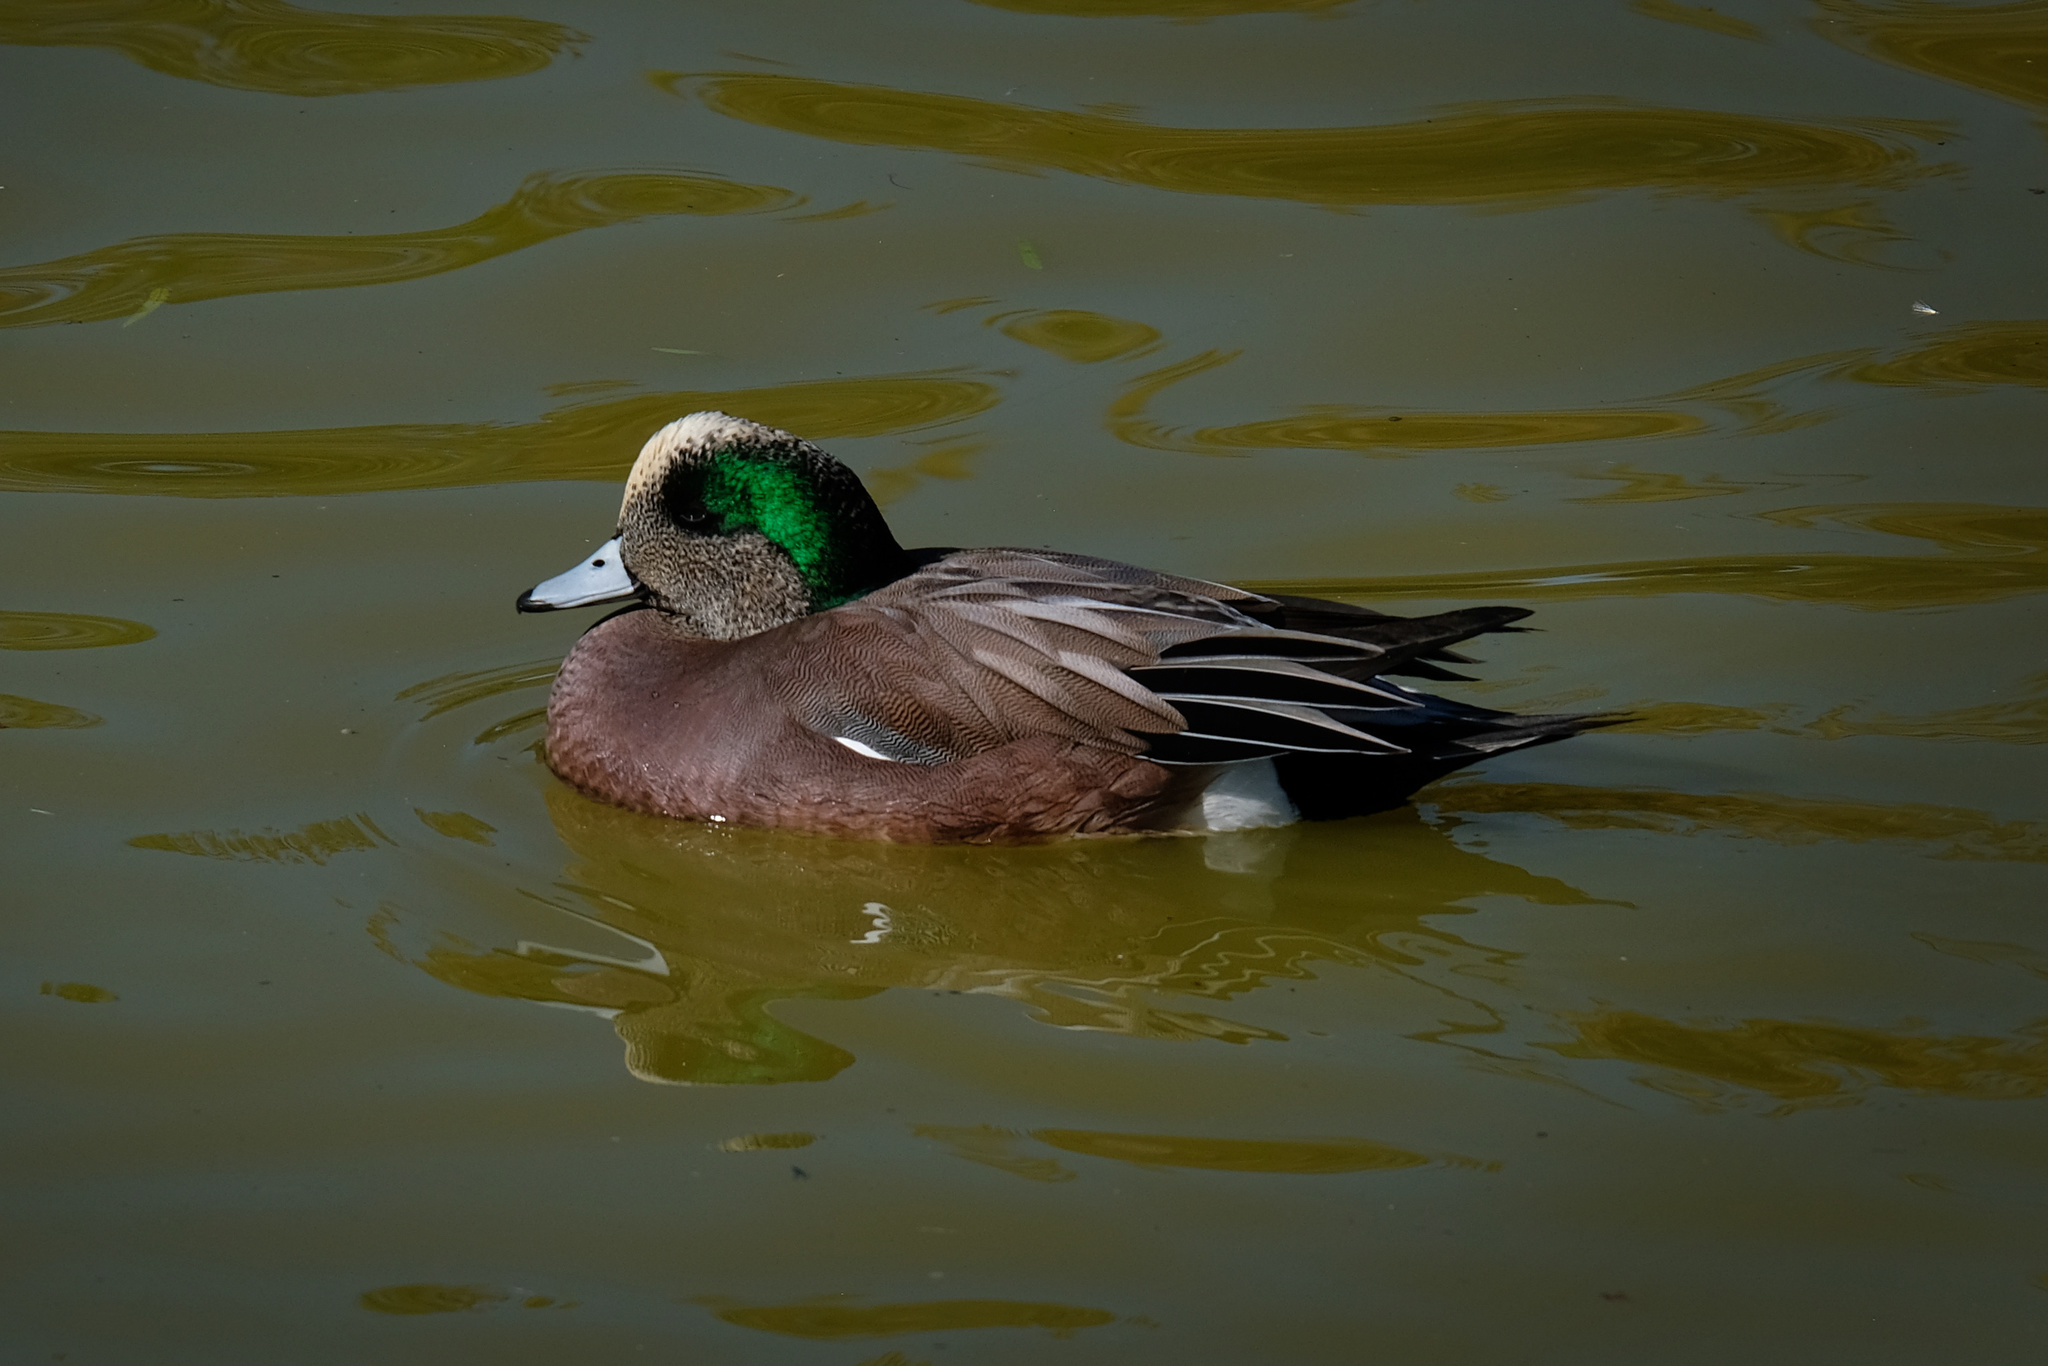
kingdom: Animalia
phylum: Chordata
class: Aves
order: Anseriformes
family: Anatidae
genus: Mareca
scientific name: Mareca americana
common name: American wigeon
